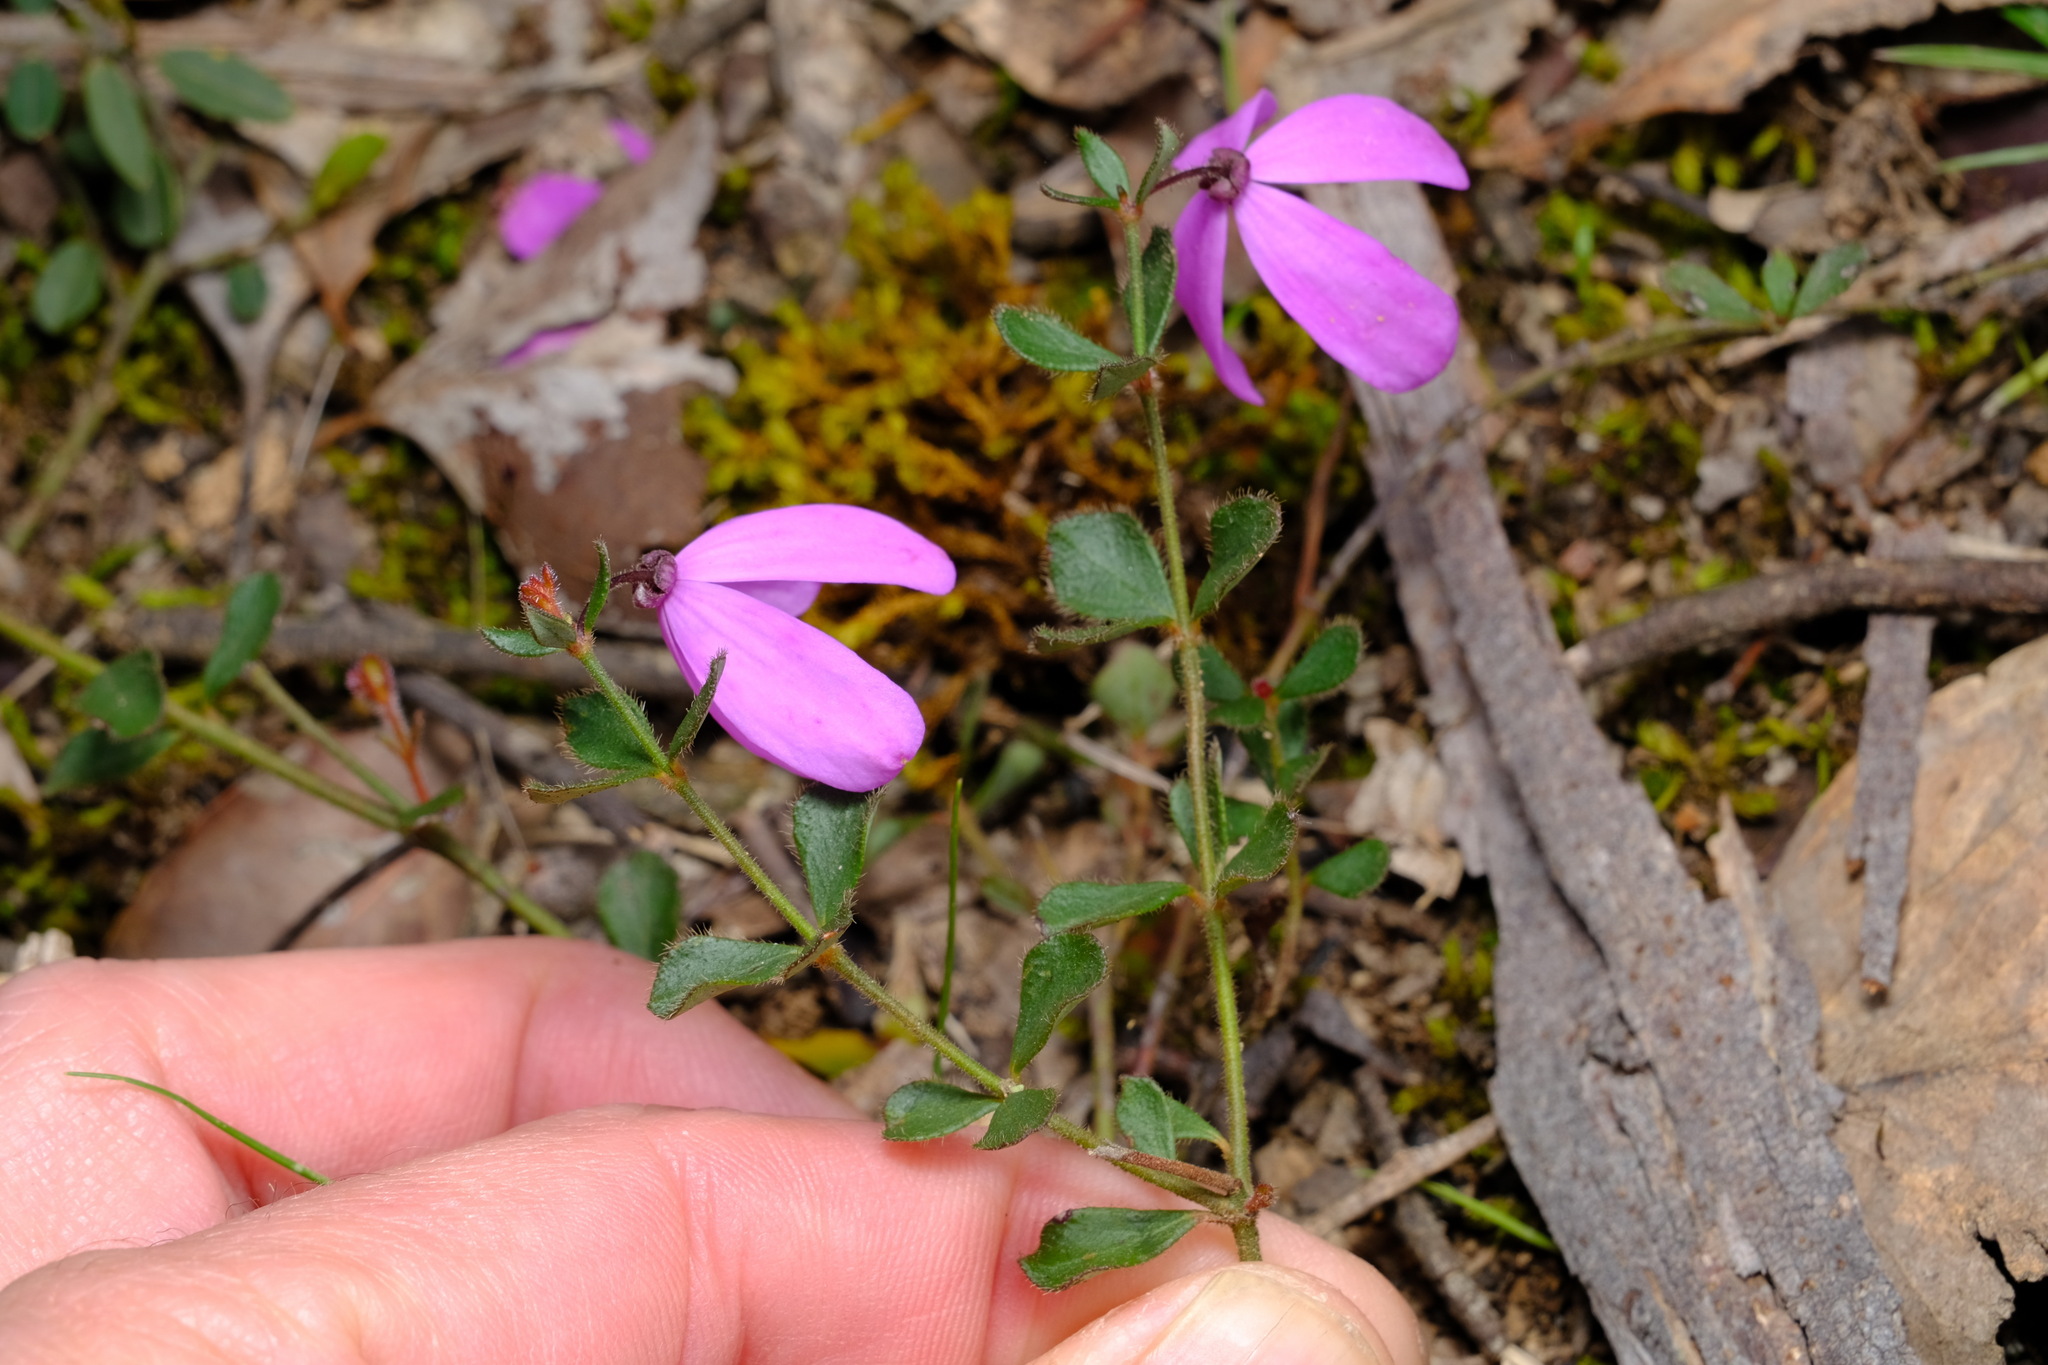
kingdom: Plantae
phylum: Tracheophyta
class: Magnoliopsida
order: Oxalidales
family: Elaeocarpaceae
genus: Tetratheca
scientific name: Tetratheca ciliata
